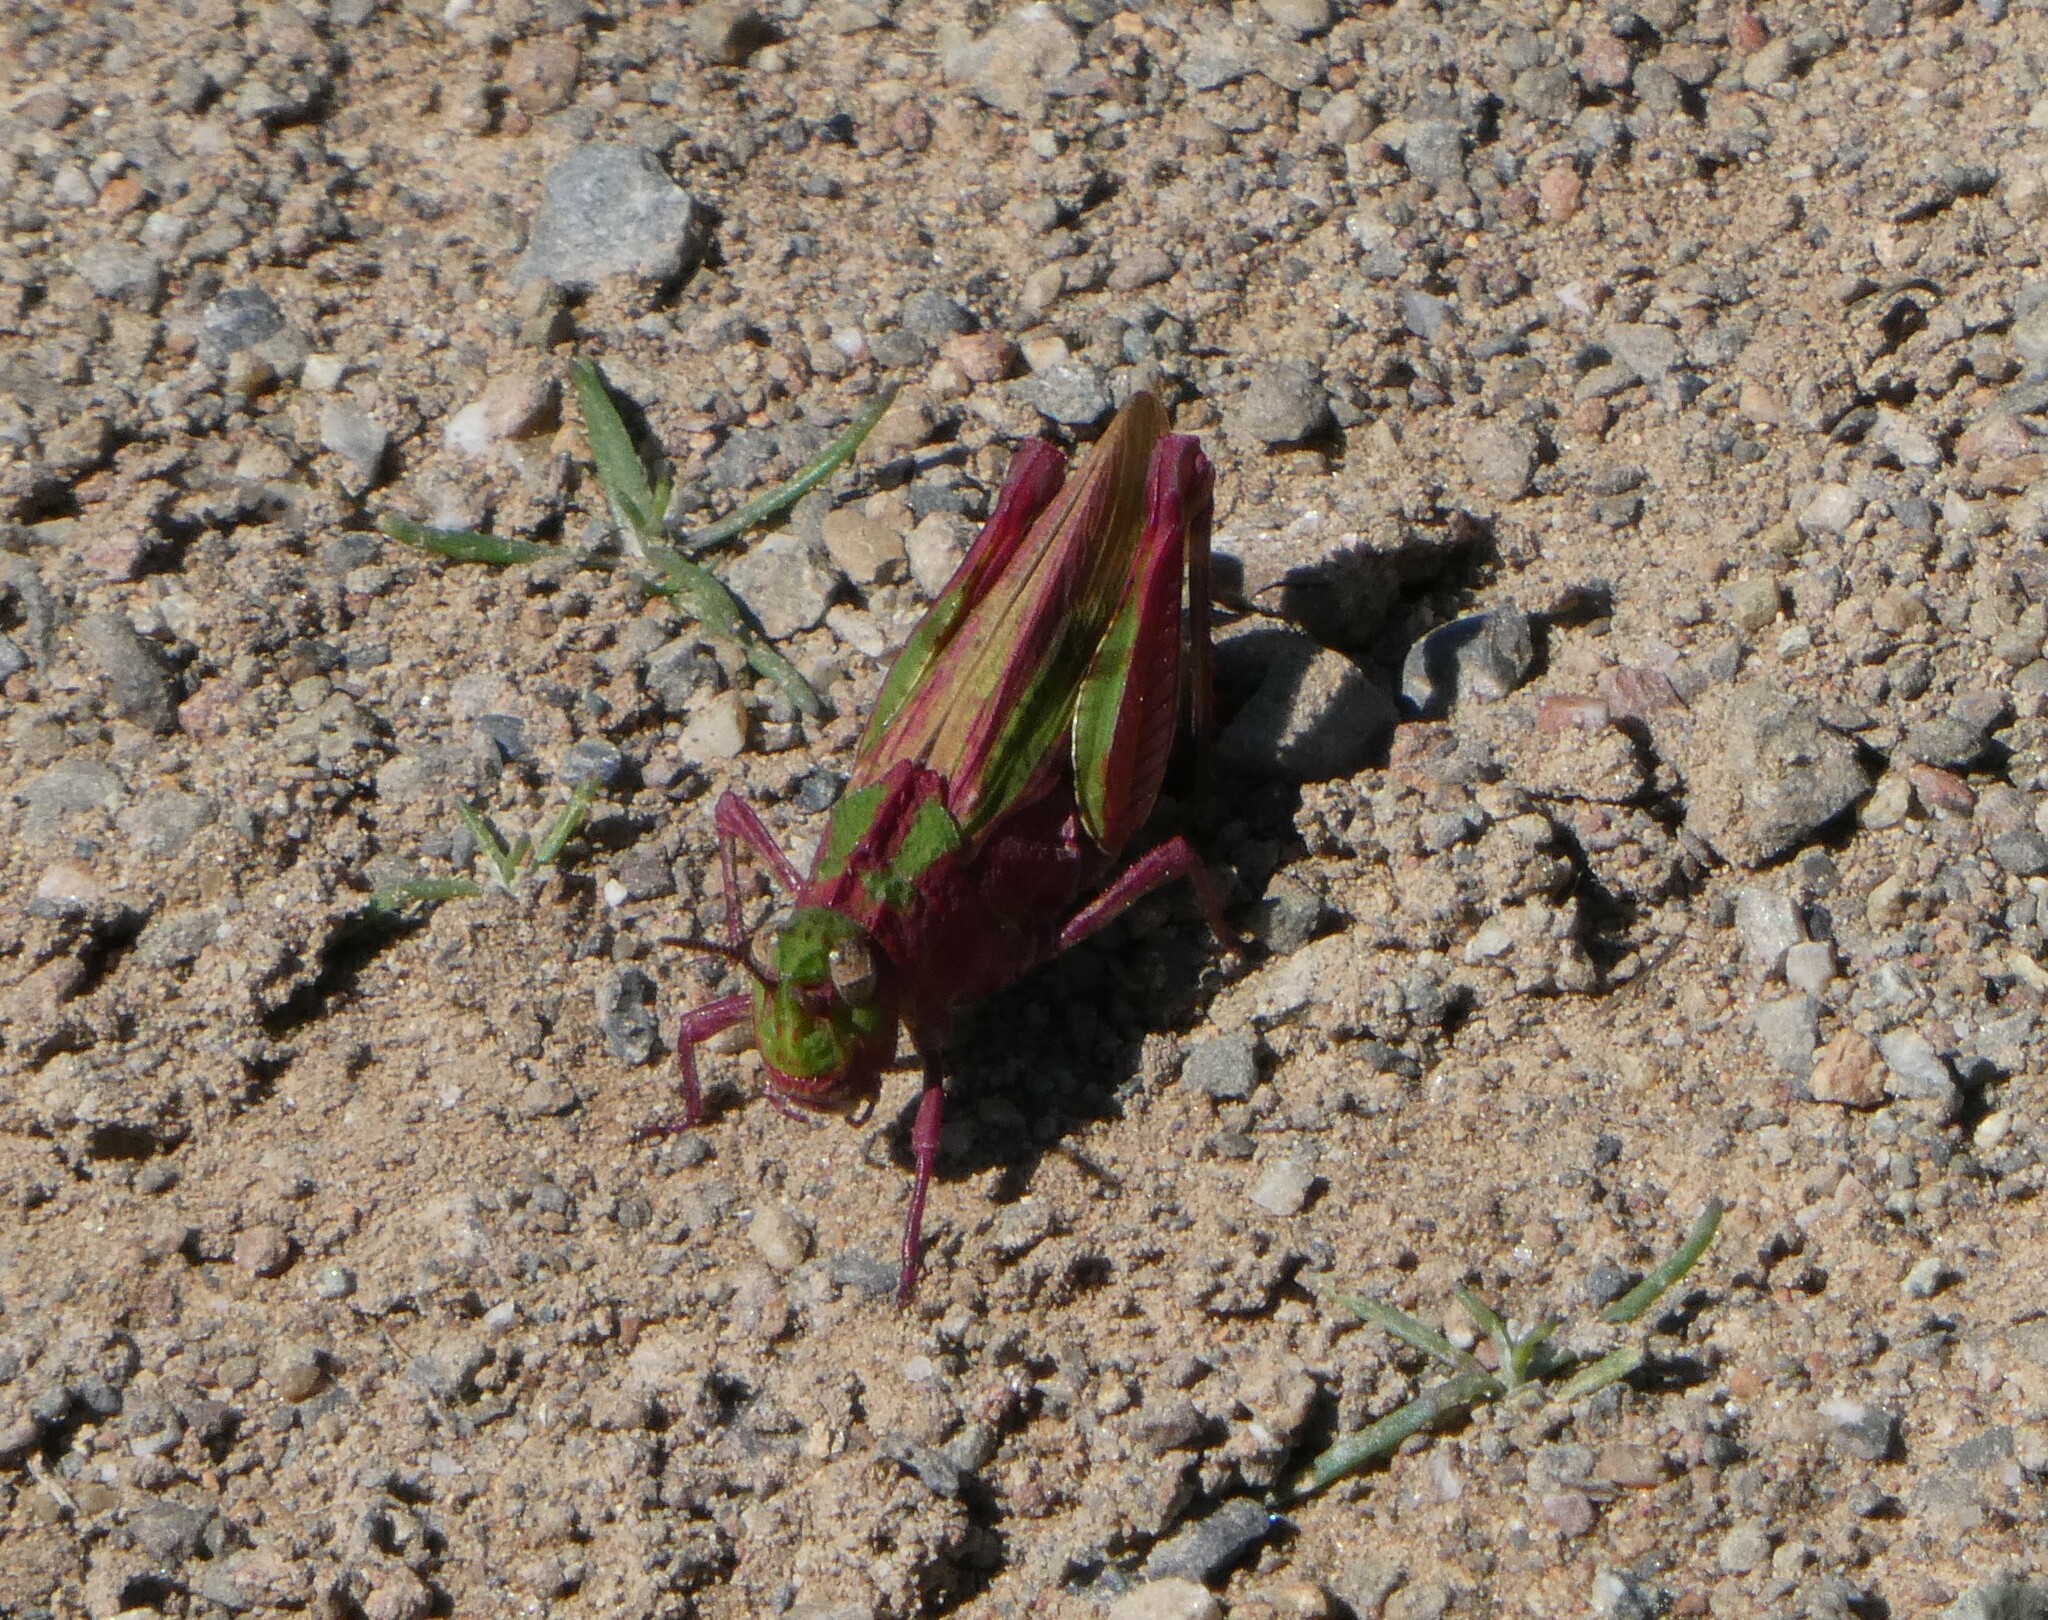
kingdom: Animalia
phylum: Arthropoda
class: Insecta
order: Orthoptera
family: Acrididae
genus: Chimarocephala
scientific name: Chimarocephala pacifica
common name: Painted meadow grasshopper
